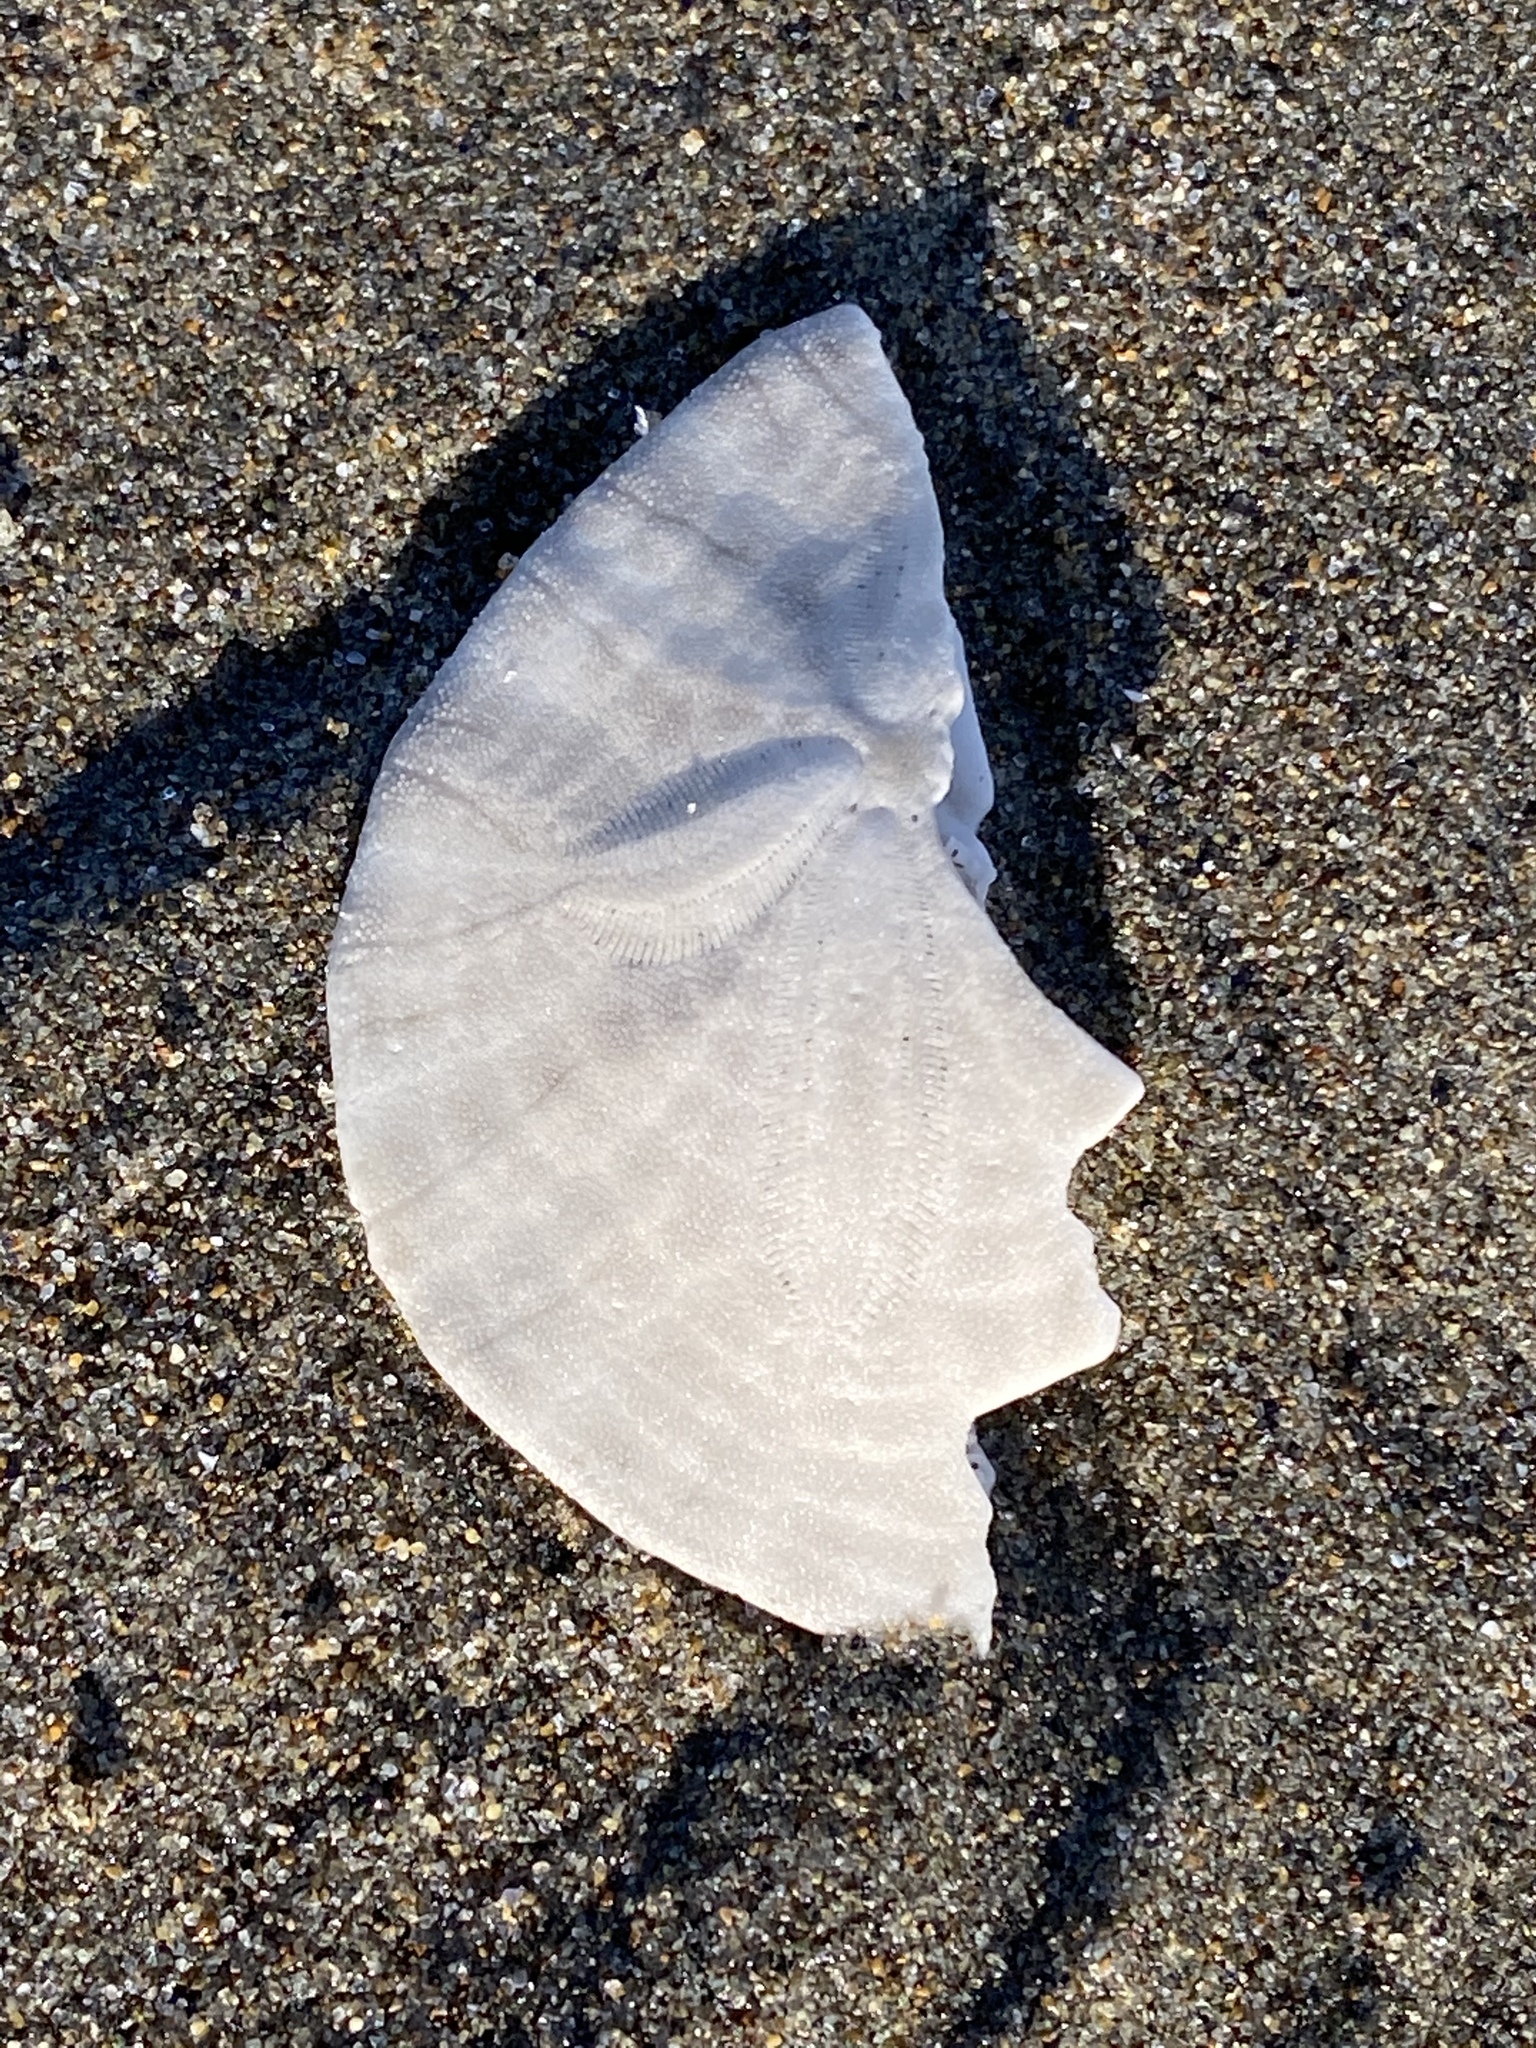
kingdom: Animalia
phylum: Echinodermata
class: Echinoidea
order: Echinolampadacea
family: Dendrasteridae
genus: Dendraster
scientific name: Dendraster excentricus
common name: Eccentric sand dollar sea urchin
